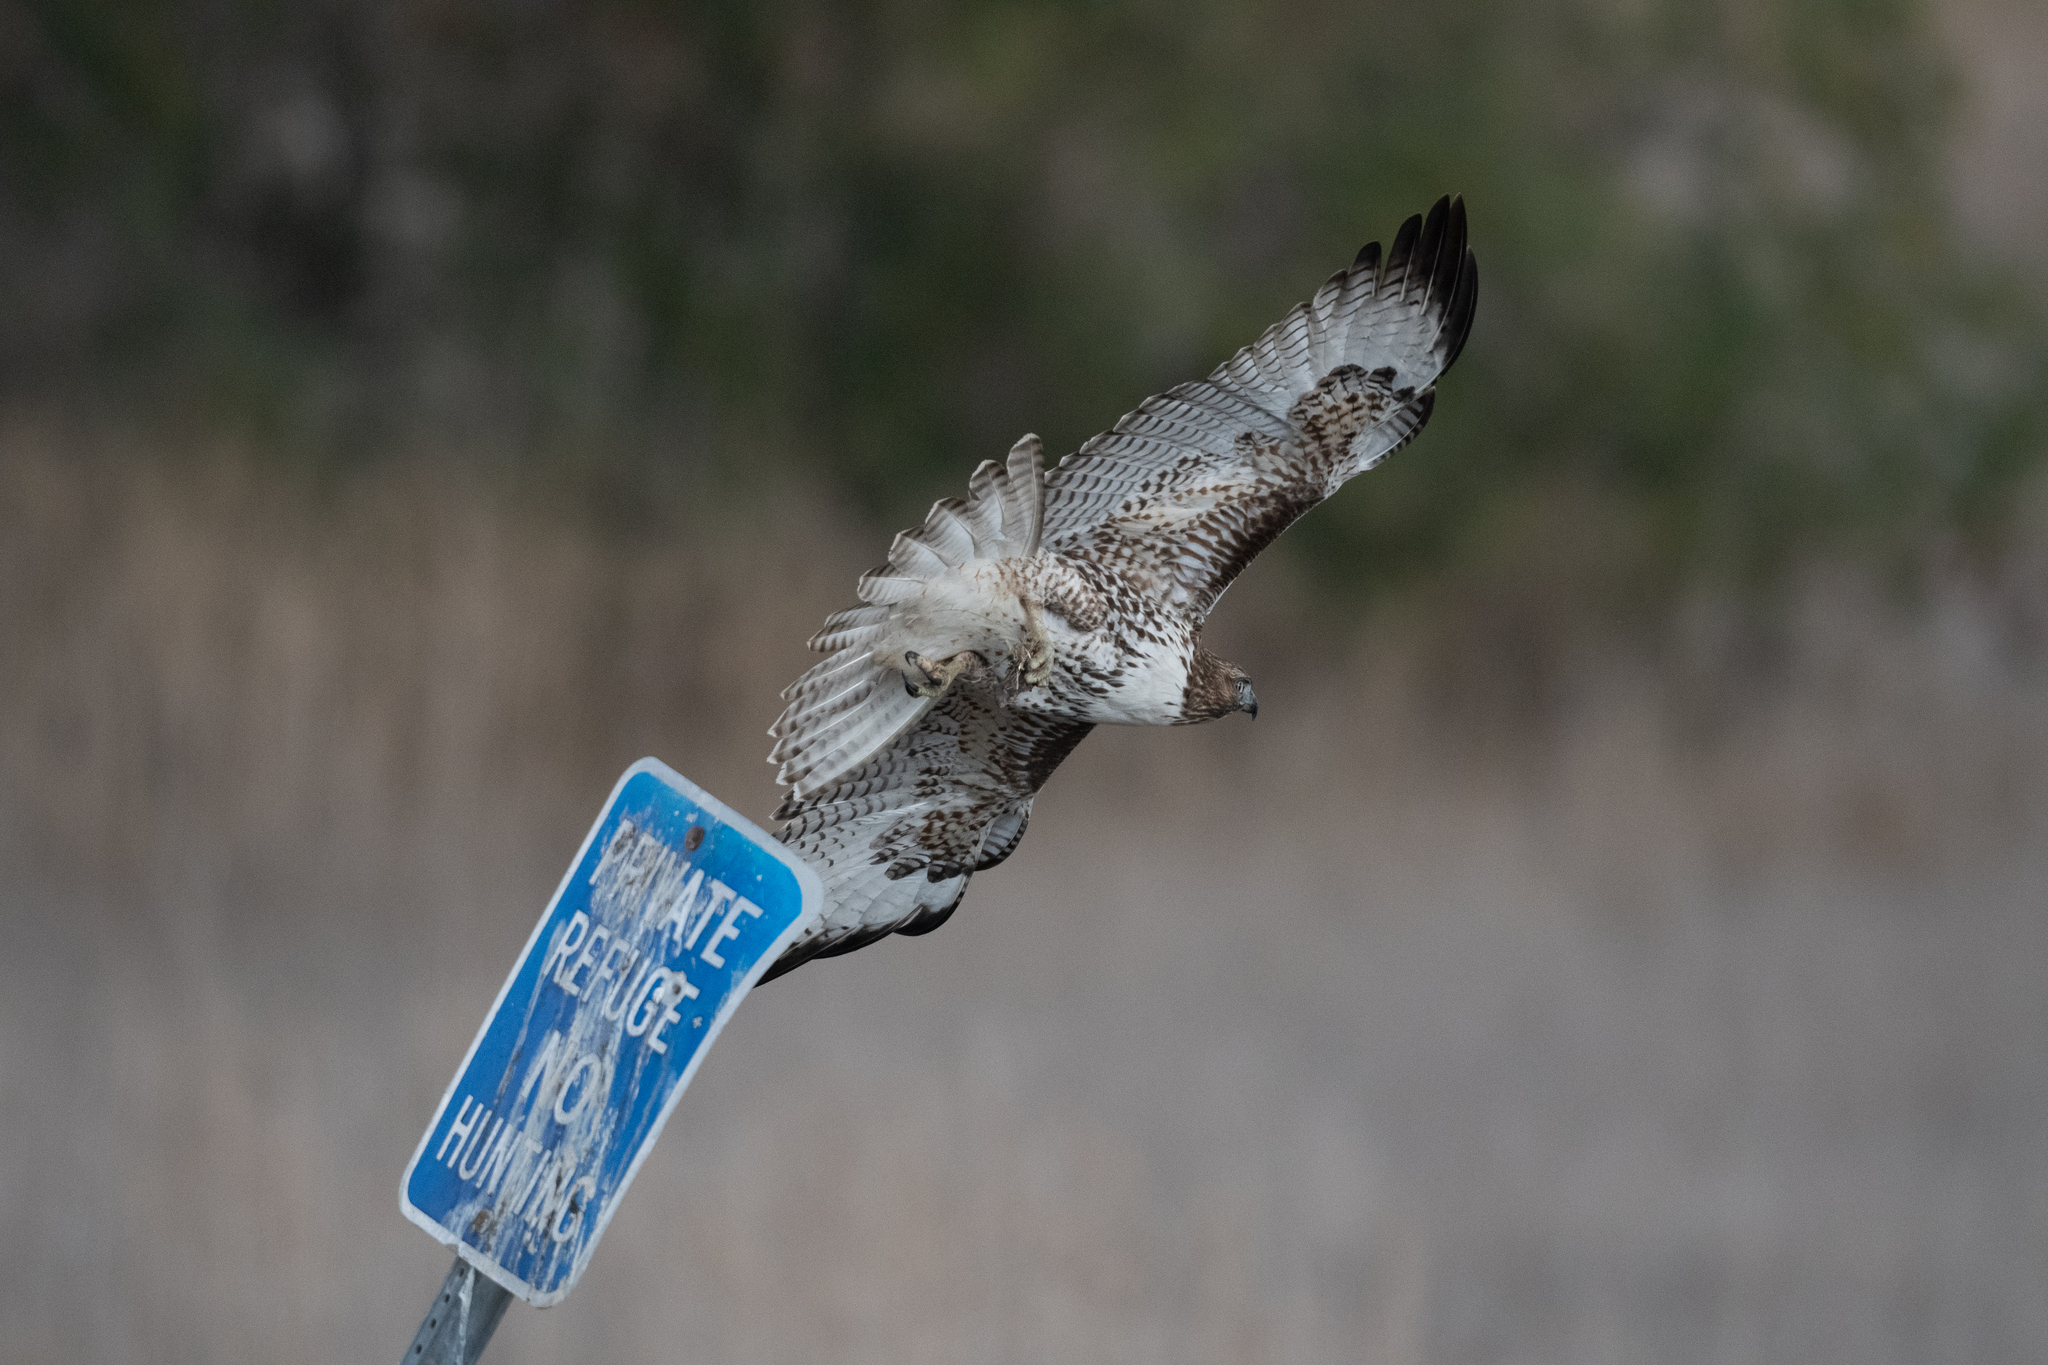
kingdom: Animalia
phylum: Chordata
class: Aves
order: Accipitriformes
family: Accipitridae
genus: Buteo
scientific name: Buteo jamaicensis
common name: Red-tailed hawk
